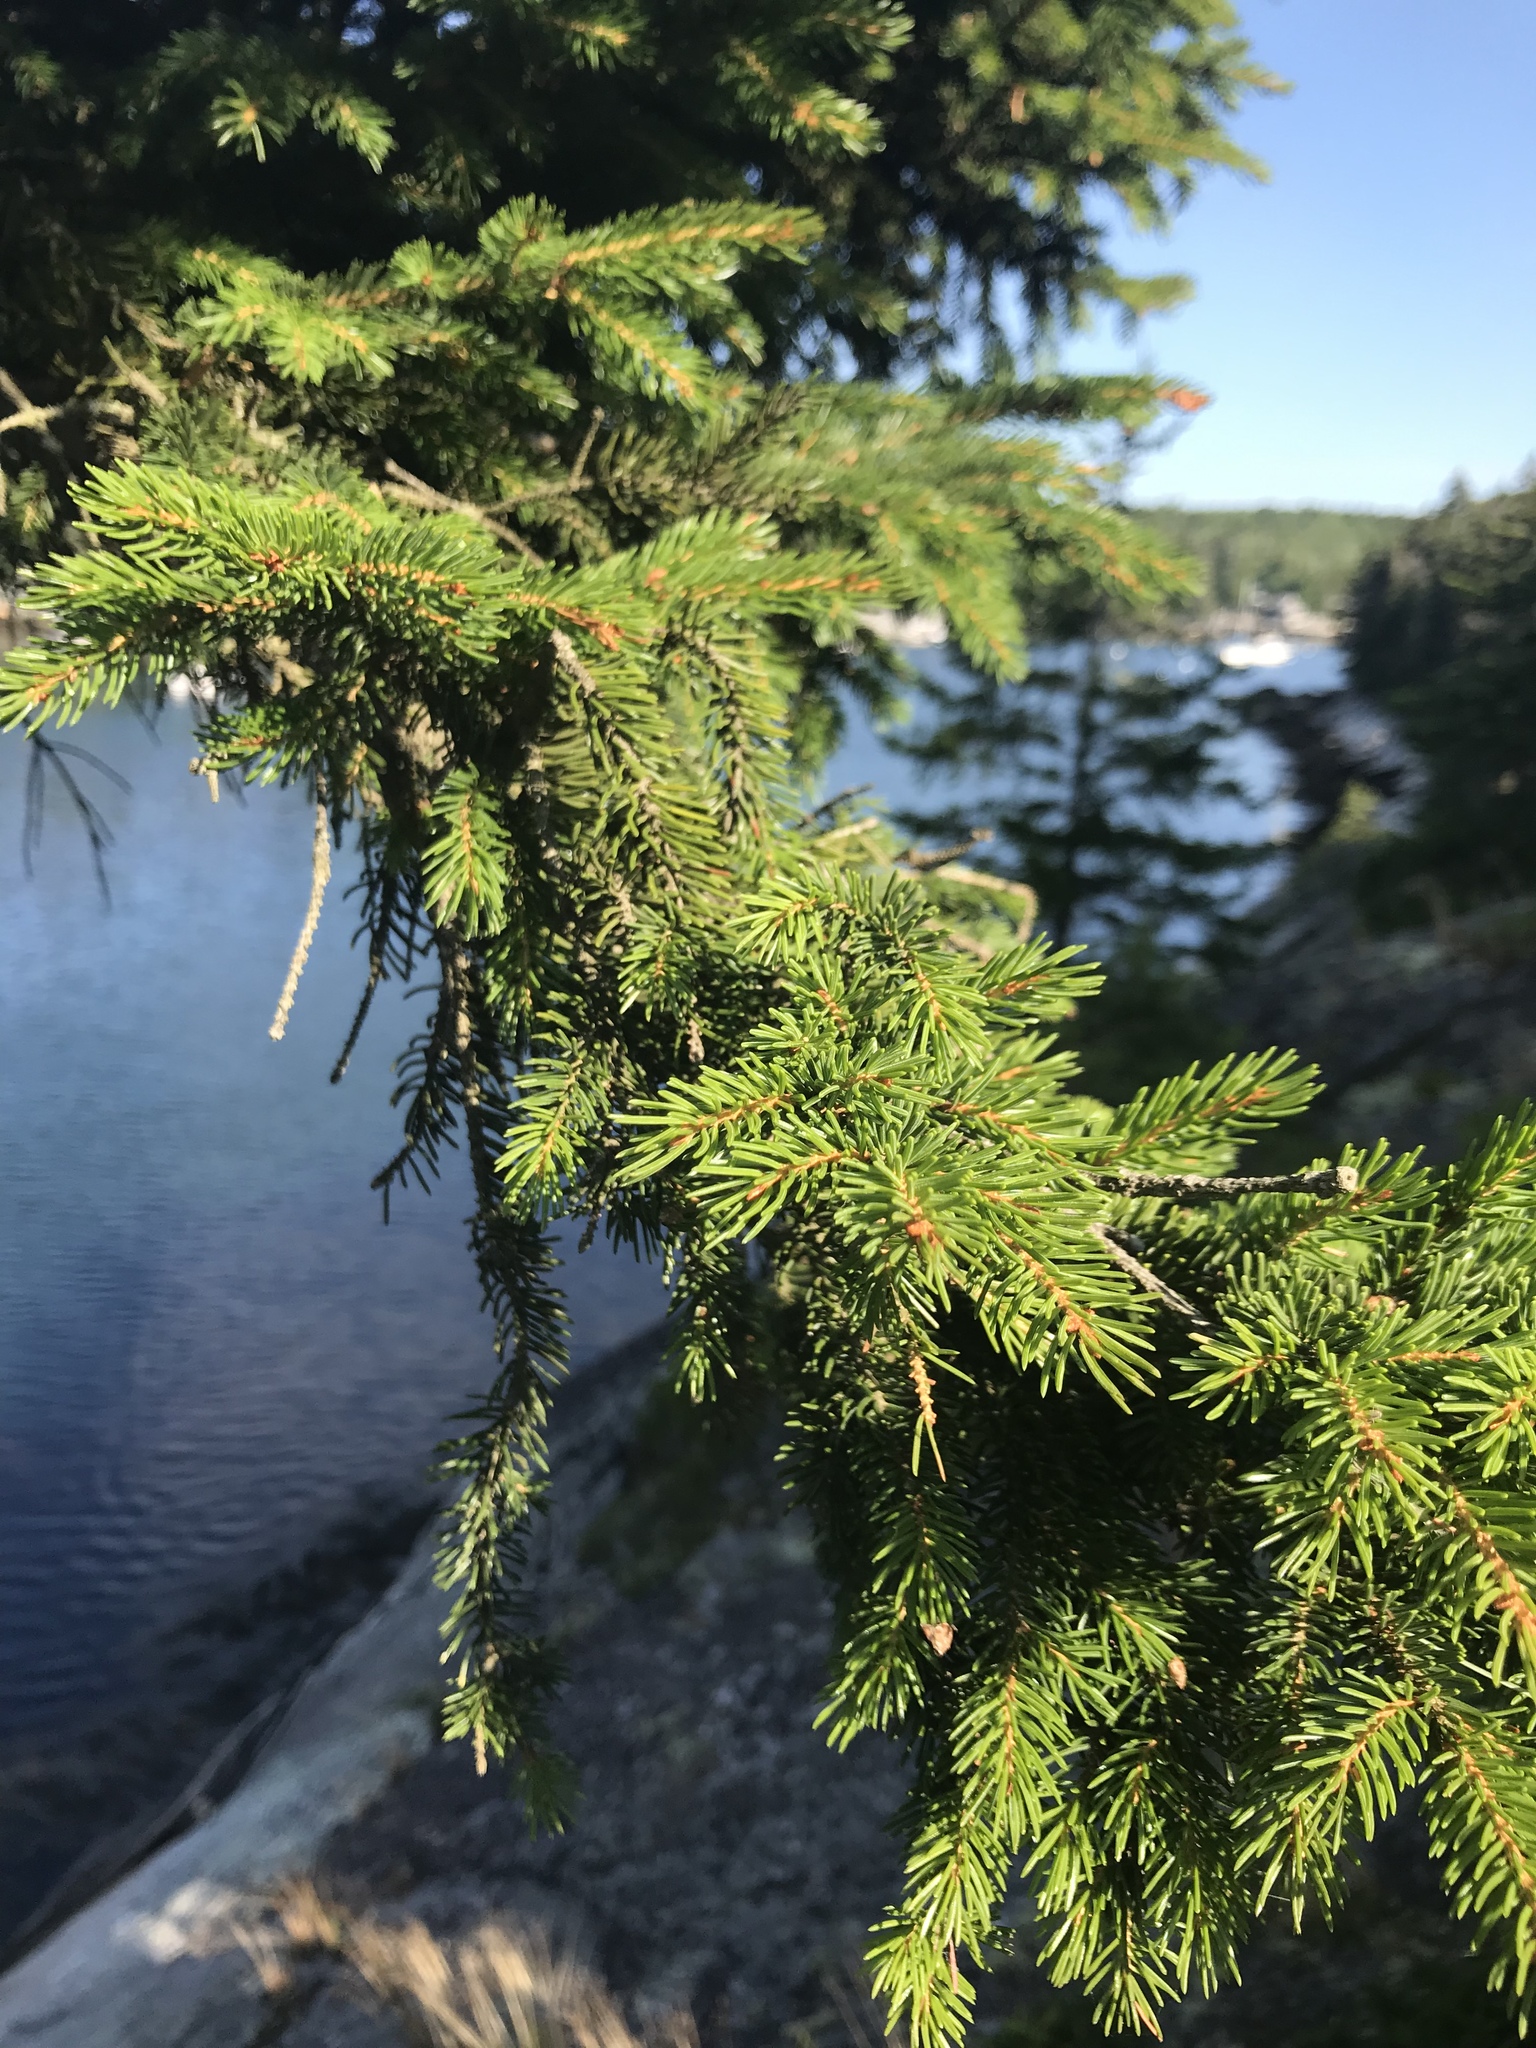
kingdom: Plantae
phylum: Tracheophyta
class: Pinopsida
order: Pinales
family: Pinaceae
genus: Picea
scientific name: Picea rubens
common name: Red spruce
